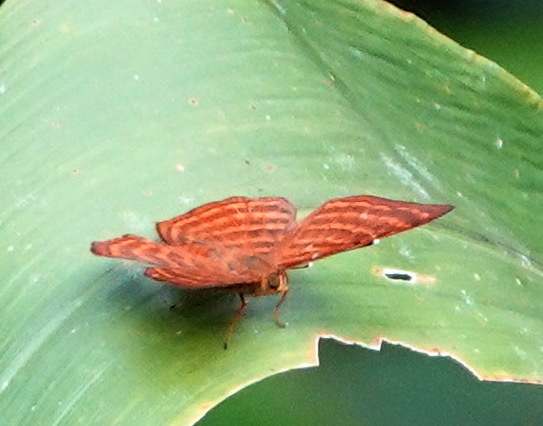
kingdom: Animalia
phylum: Arthropoda
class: Insecta
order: Lepidoptera
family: Riodinidae
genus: Zemeros
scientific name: Zemeros emesoides
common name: Malay punchinello
